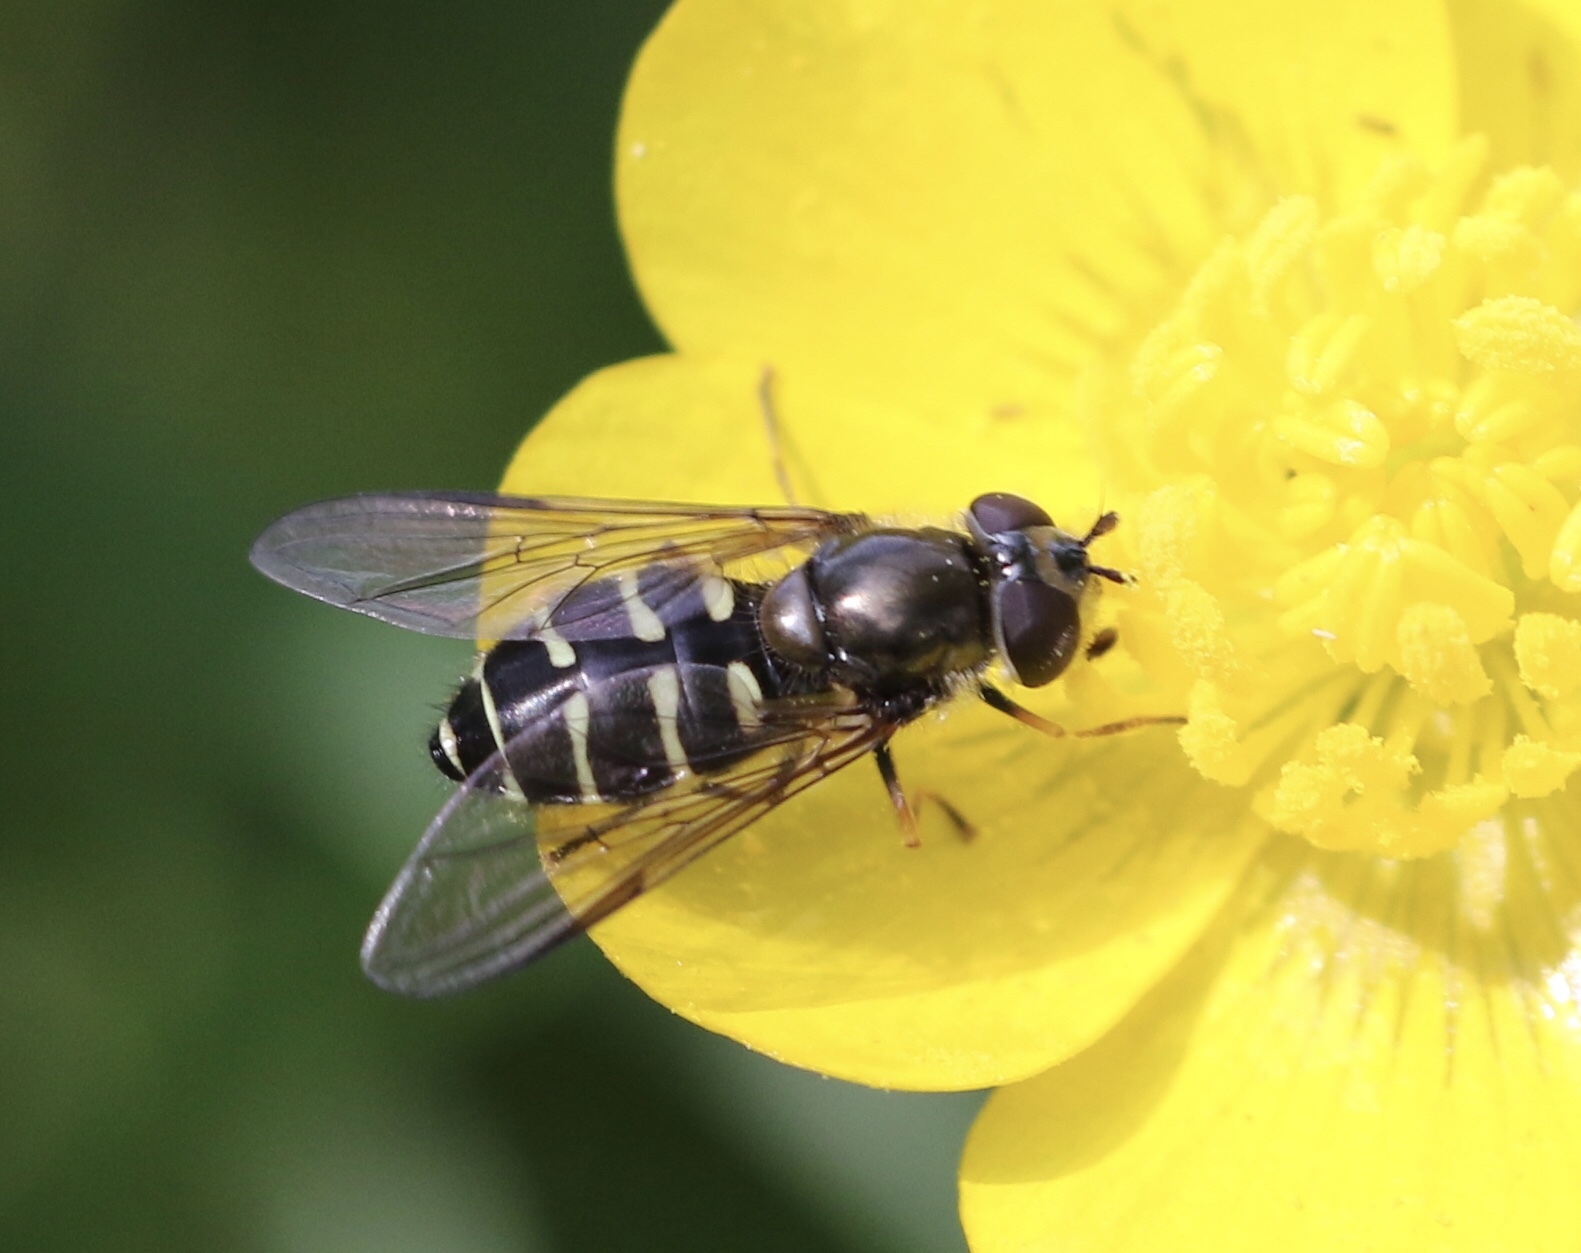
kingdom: Animalia
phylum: Arthropoda
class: Insecta
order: Diptera
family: Syrphidae
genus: Dasysyrphus
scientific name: Dasysyrphus
